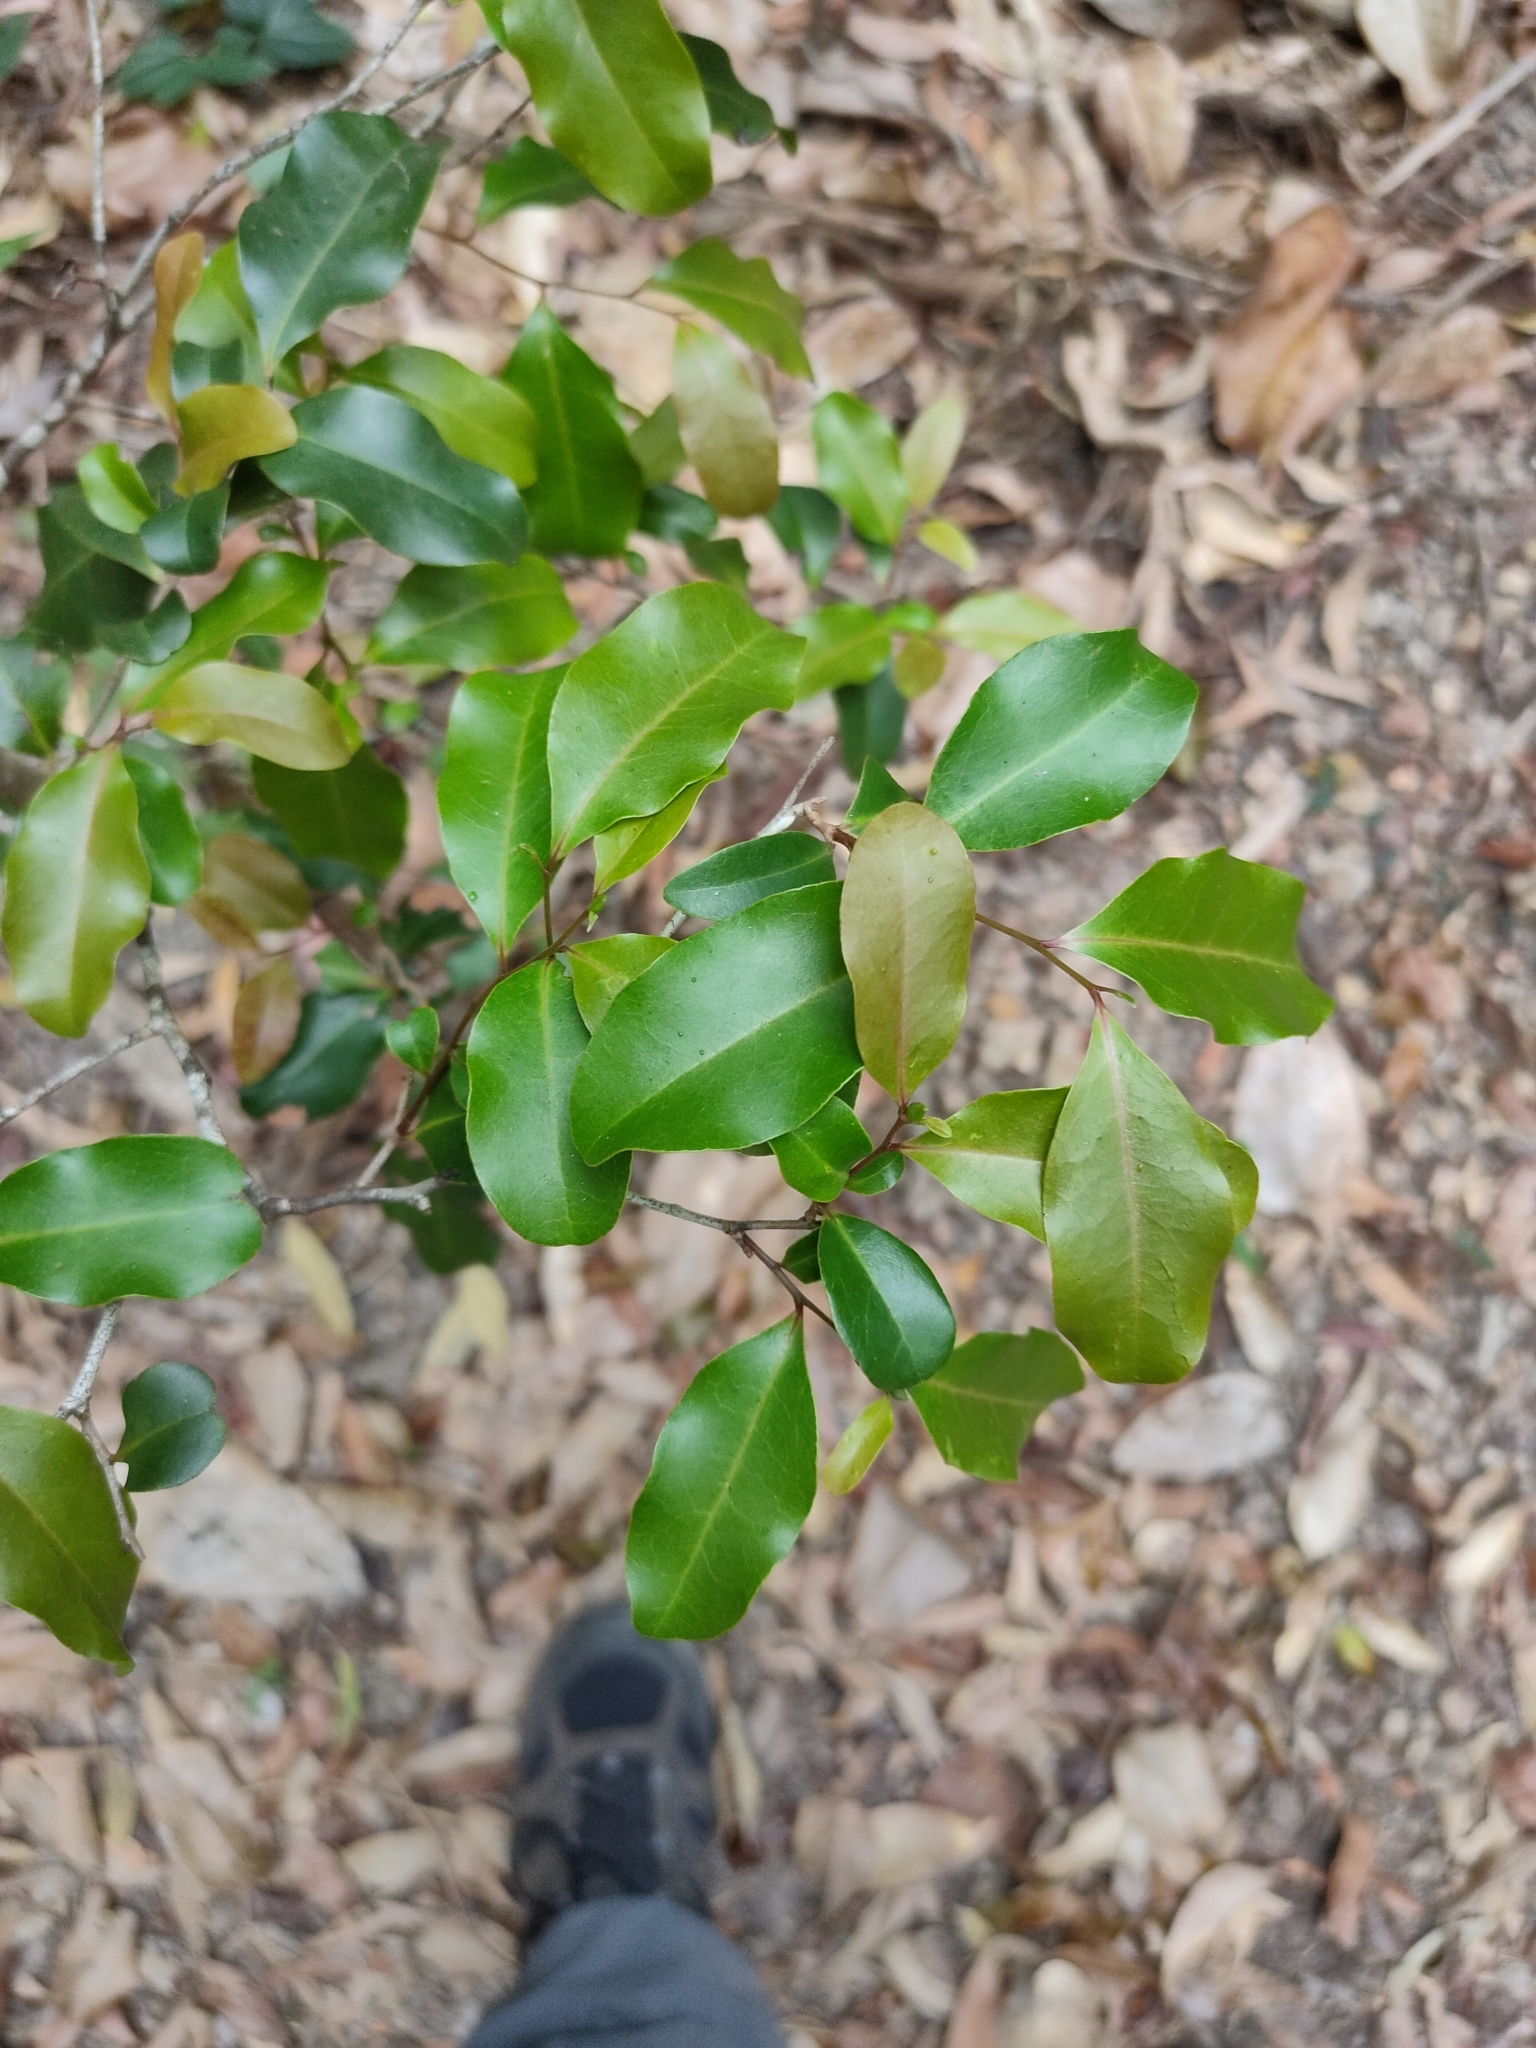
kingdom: Plantae
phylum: Tracheophyta
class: Magnoliopsida
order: Ericales
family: Ebenaceae
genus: Diospyros
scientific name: Diospyros geminata
